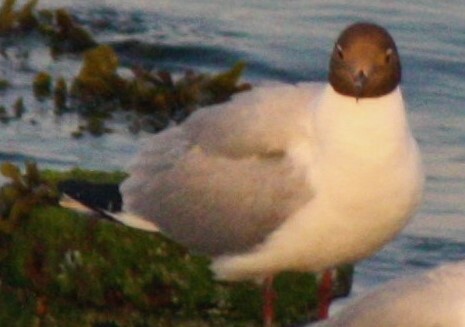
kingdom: Animalia
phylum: Chordata
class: Aves
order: Charadriiformes
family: Laridae
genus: Chroicocephalus
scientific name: Chroicocephalus ridibundus
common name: Black-headed gull
